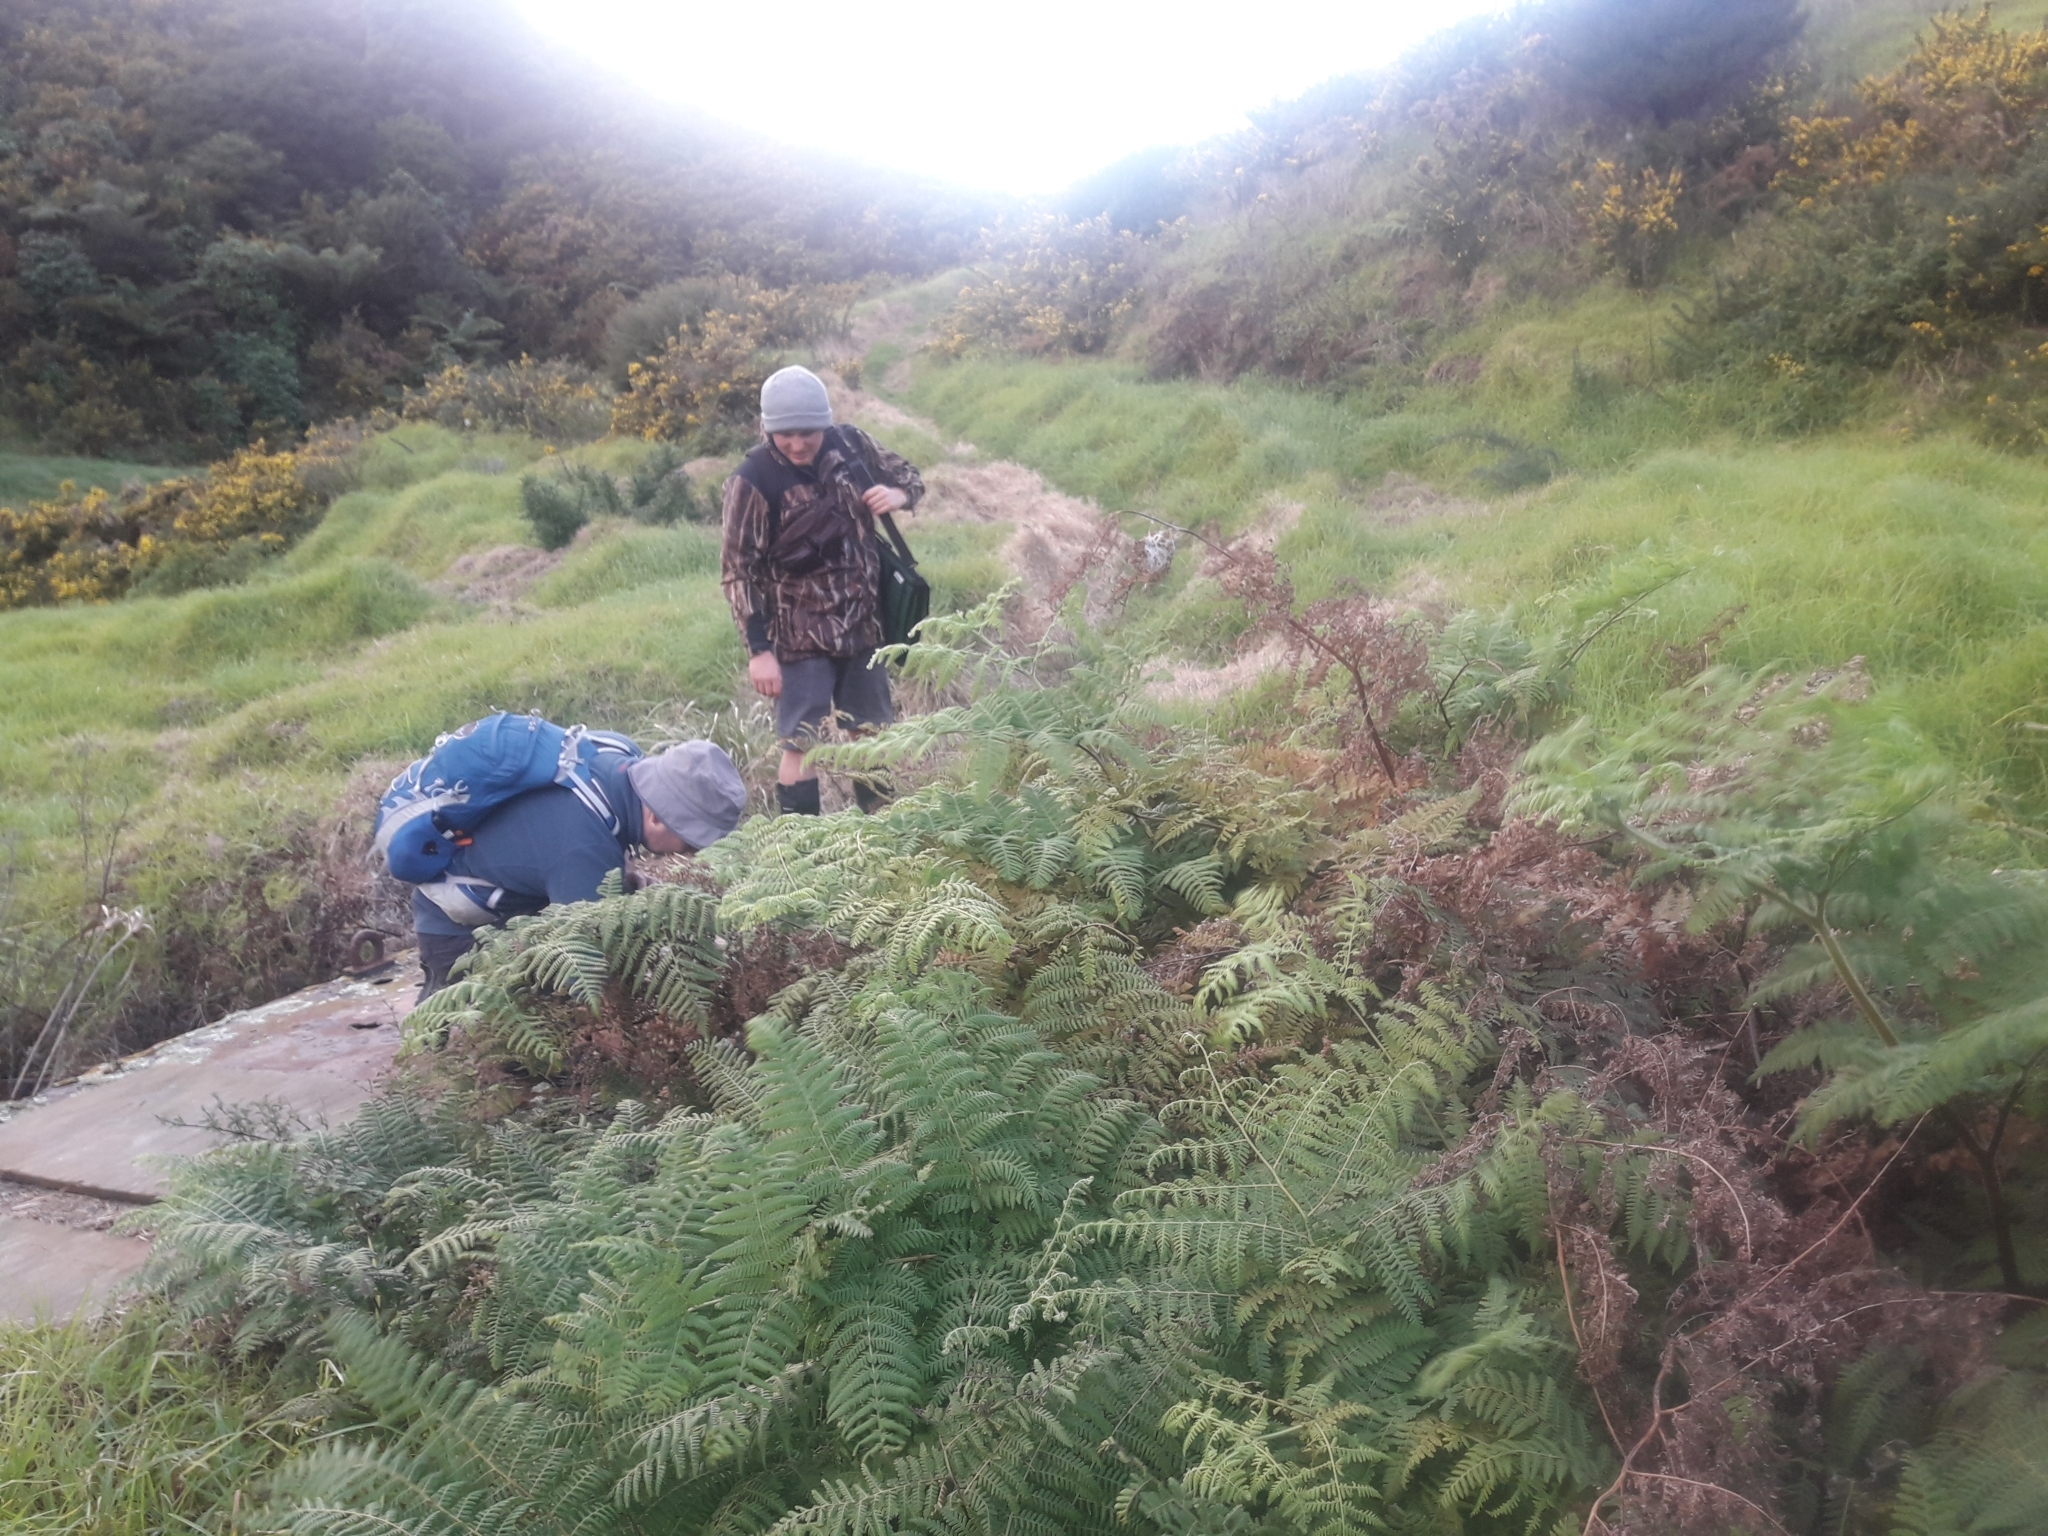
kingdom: Plantae
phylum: Tracheophyta
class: Polypodiopsida
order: Polypodiales
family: Dennstaedtiaceae
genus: Hypolepis
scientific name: Hypolepis dicksonioides
